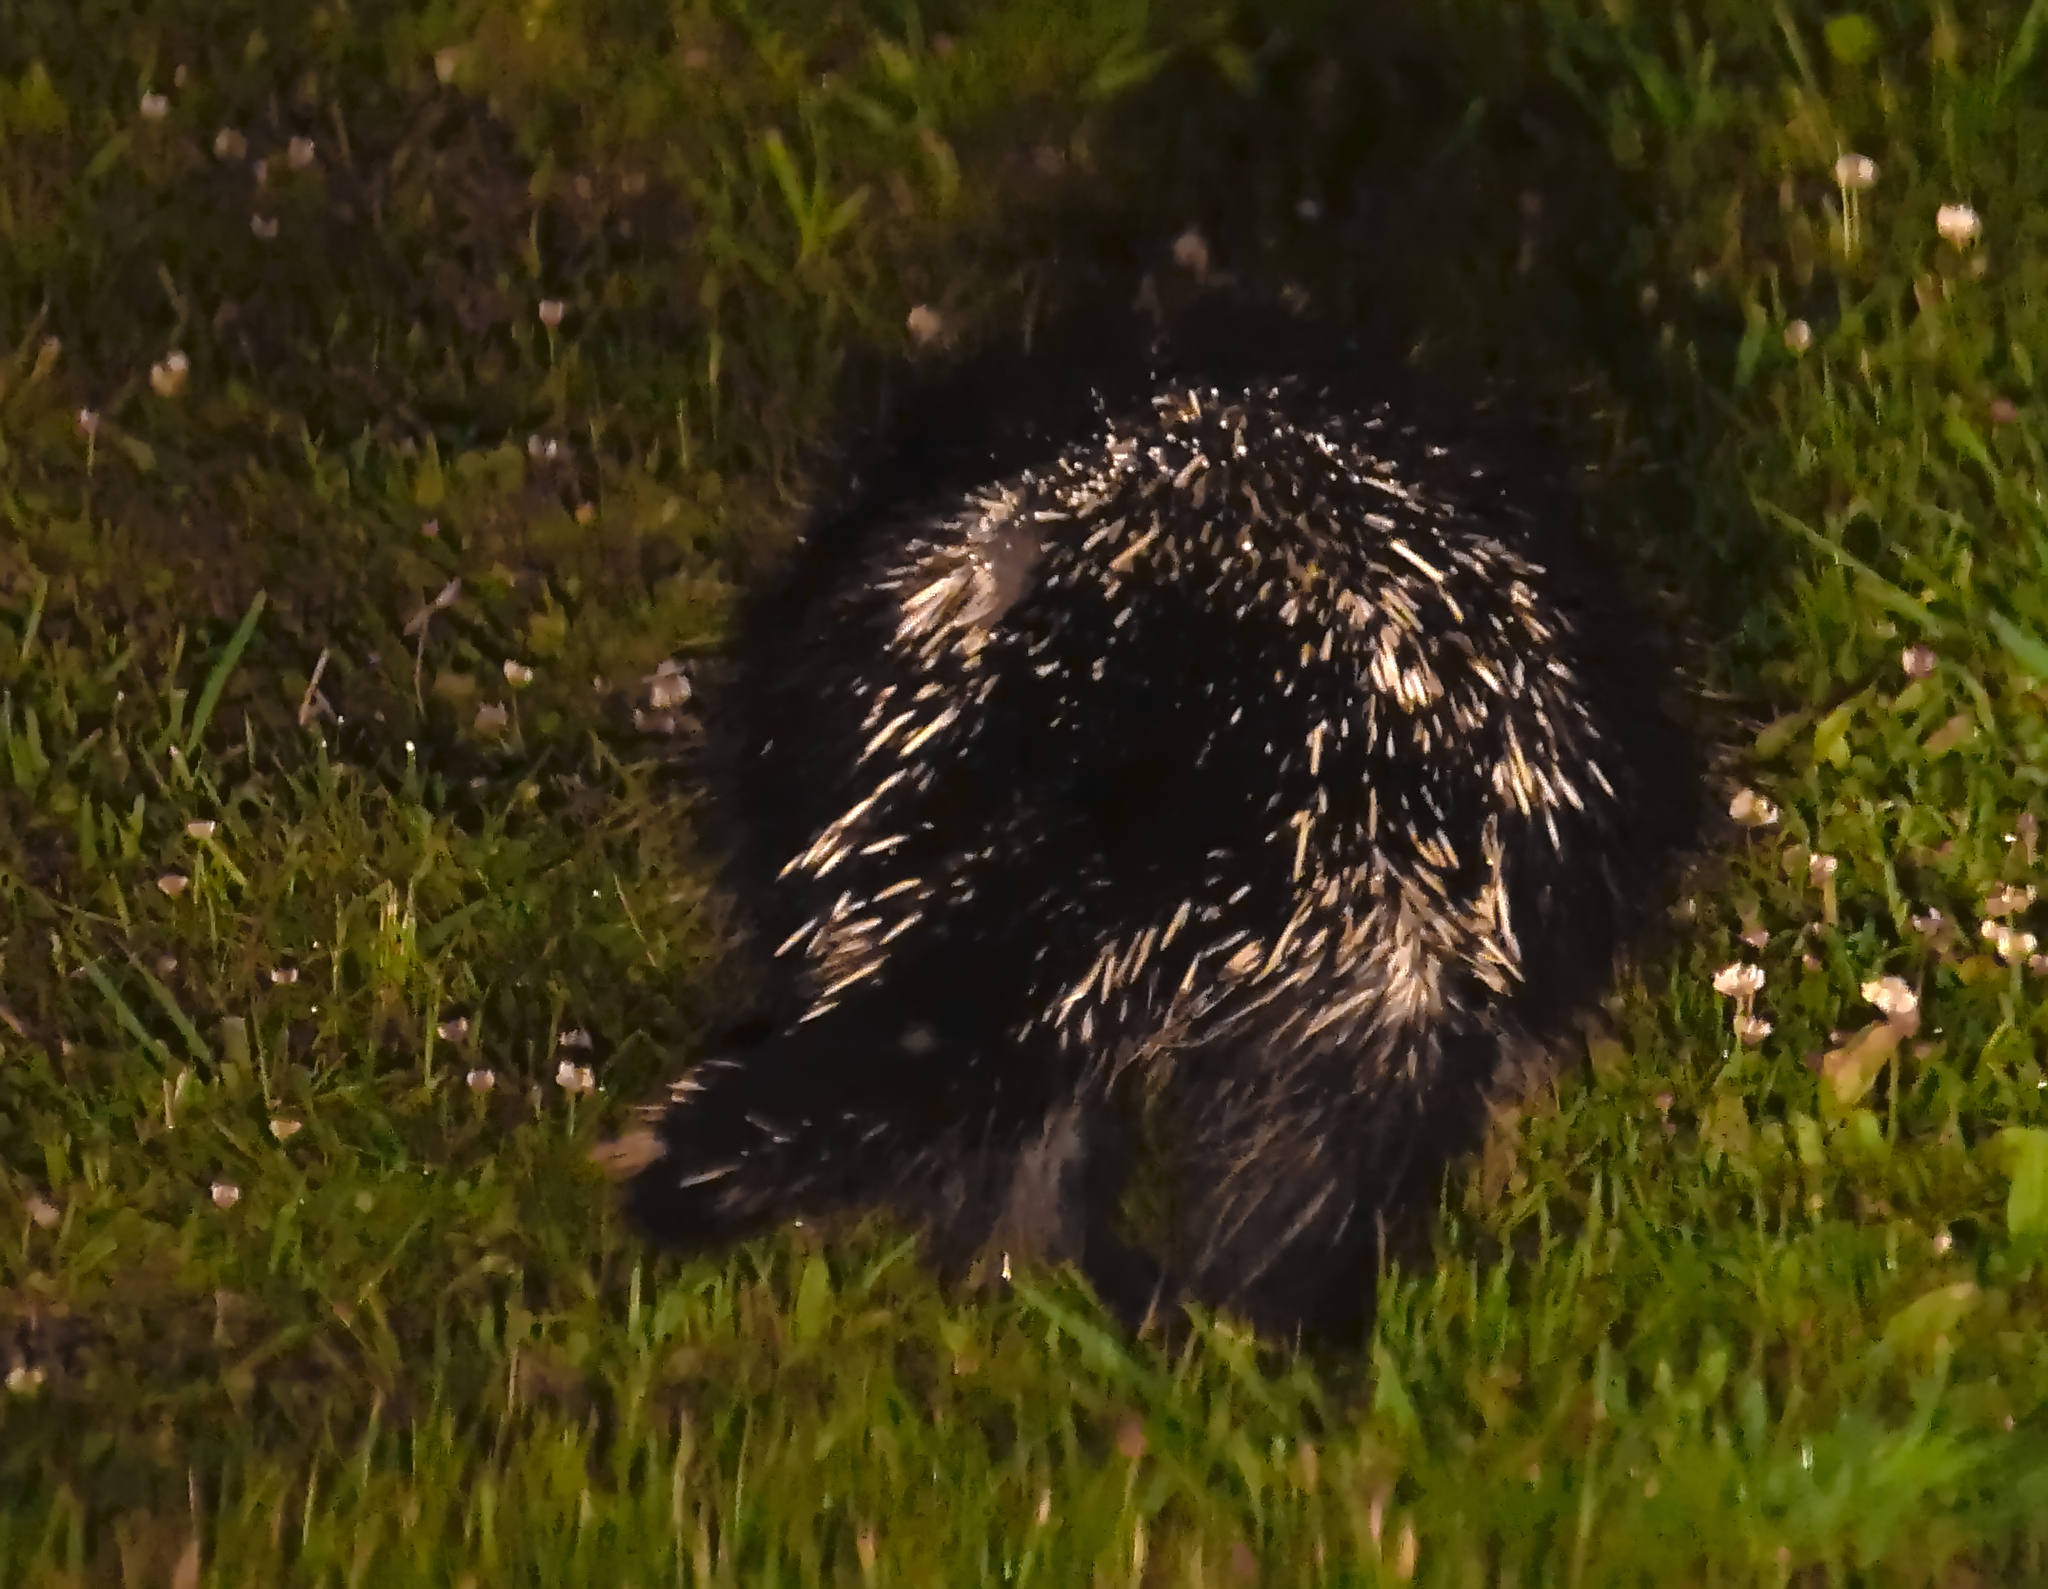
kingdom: Animalia
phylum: Chordata
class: Mammalia
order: Rodentia
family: Erethizontidae
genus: Erethizon
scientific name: Erethizon dorsatus
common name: North american porcupine
